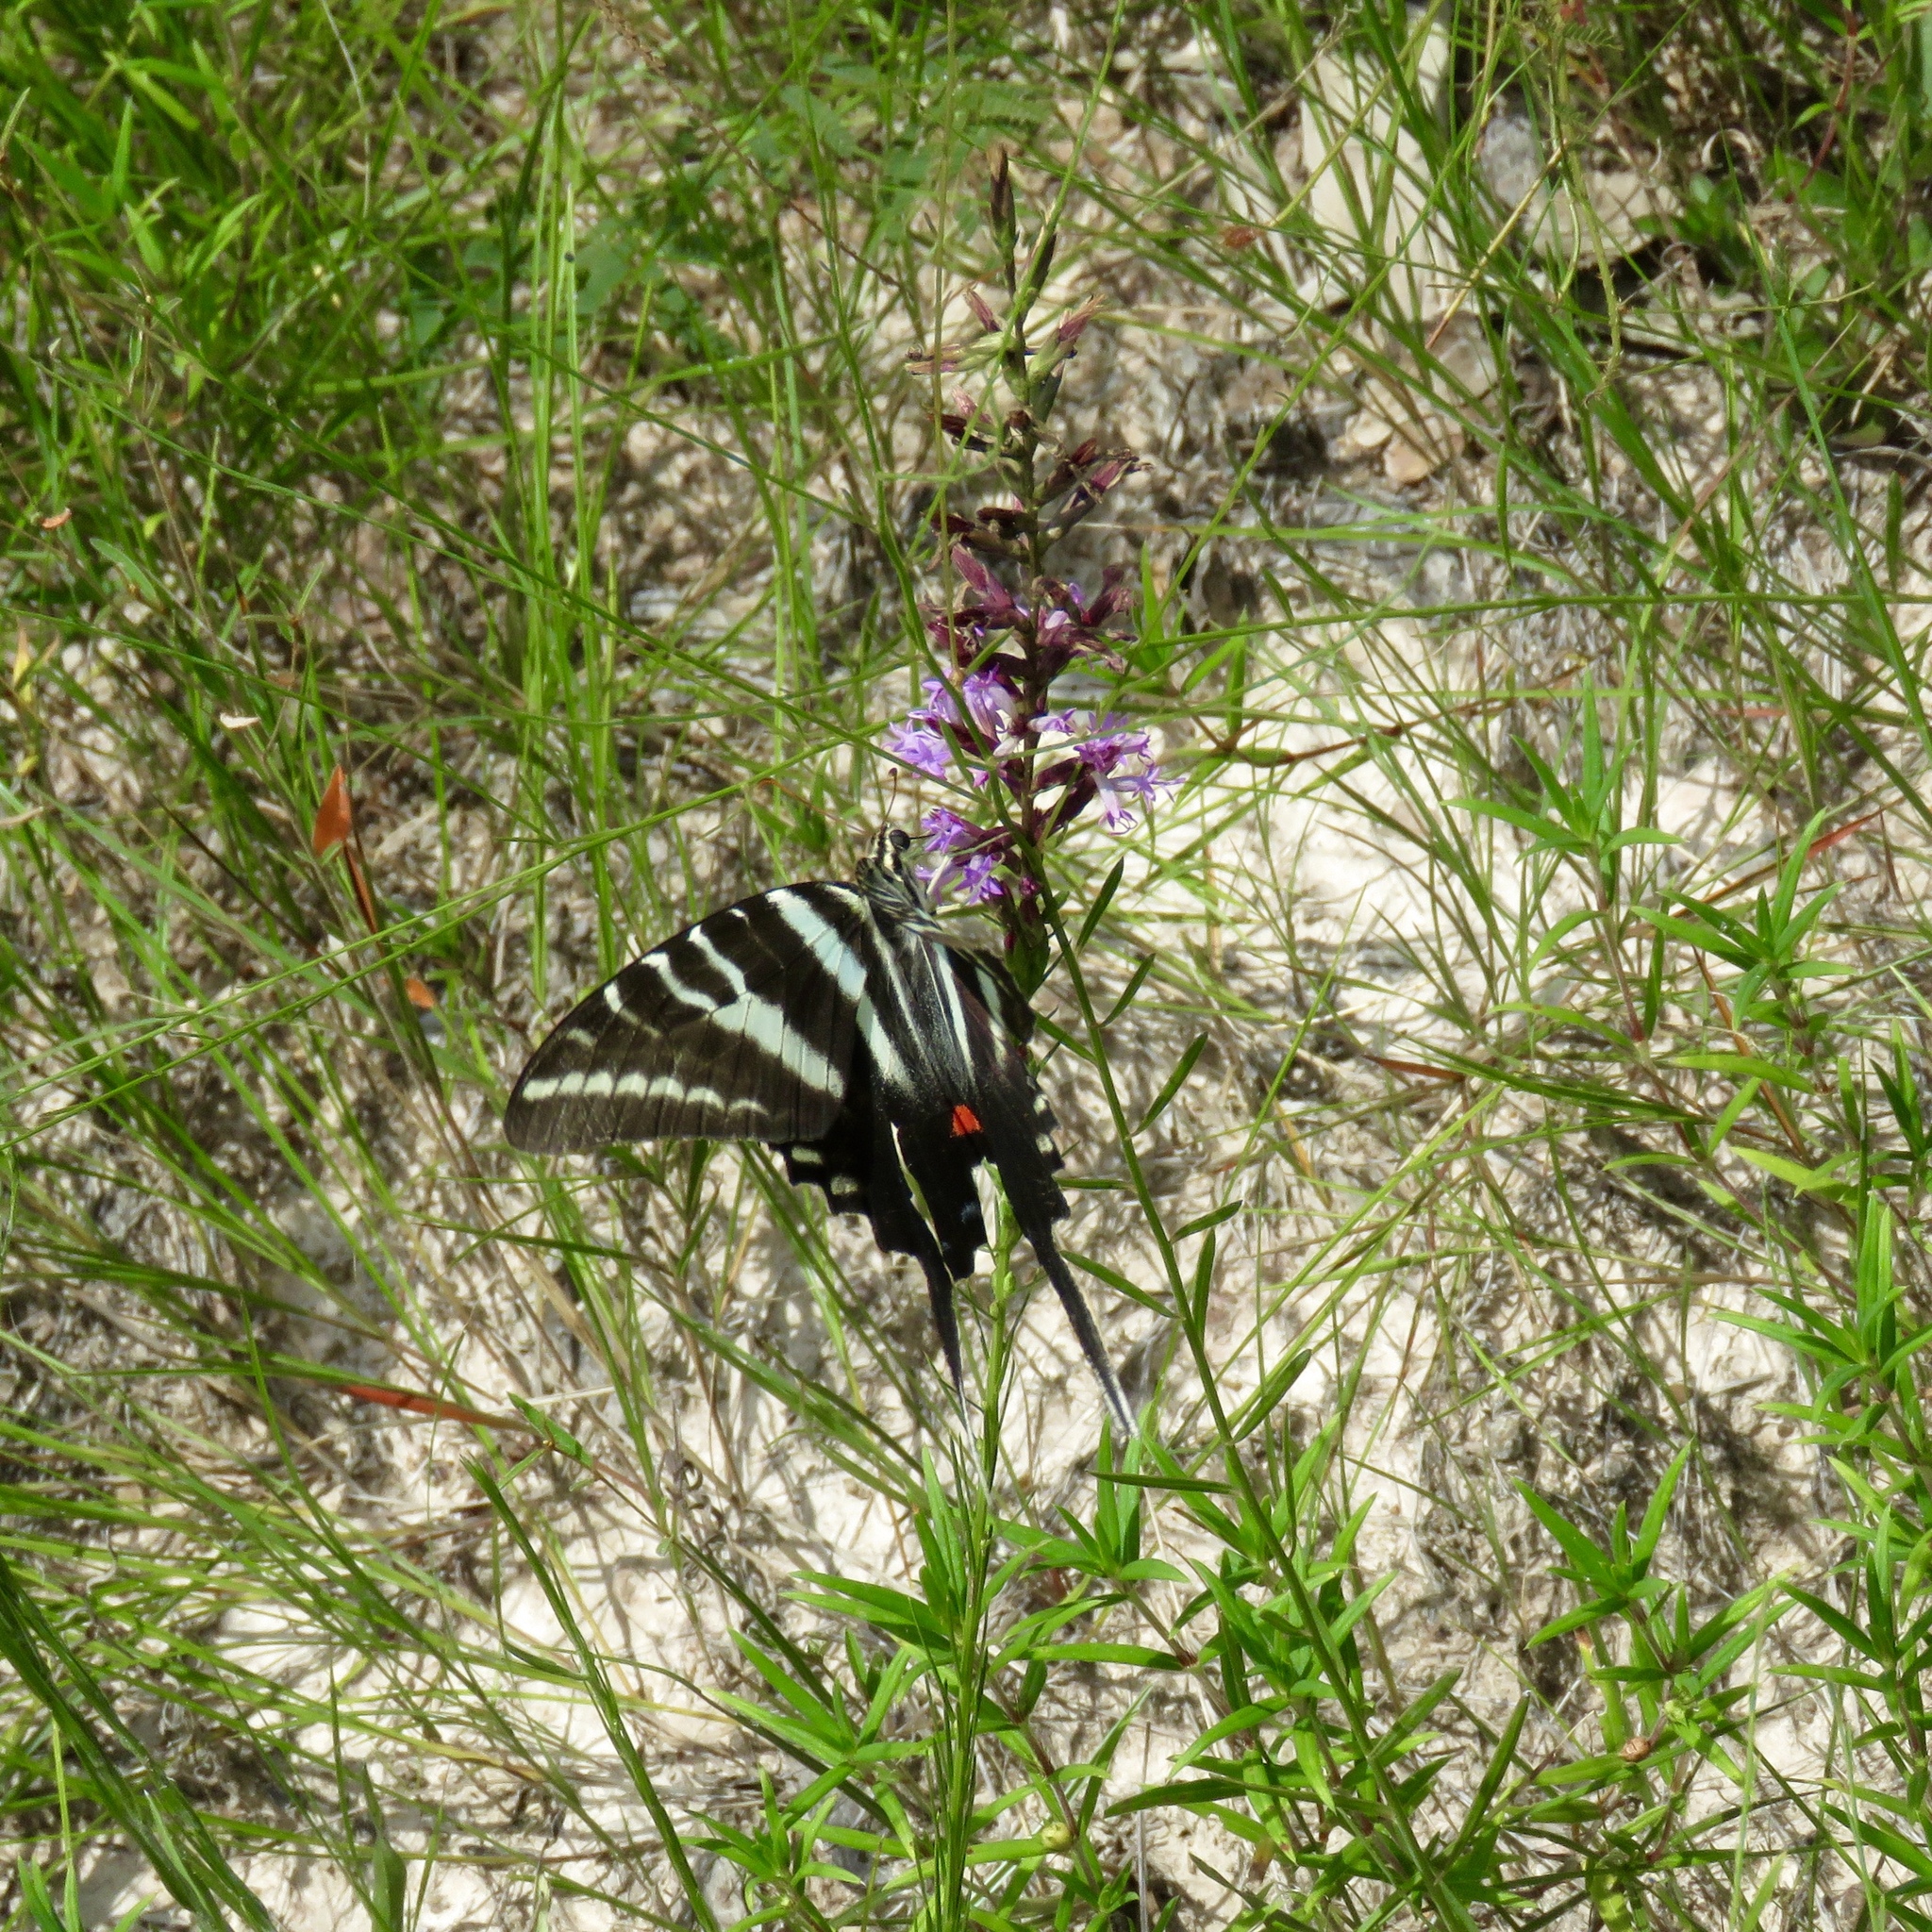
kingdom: Animalia
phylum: Arthropoda
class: Insecta
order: Lepidoptera
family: Papilionidae
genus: Protographium
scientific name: Protographium marcellus
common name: Zebra swallowtail
